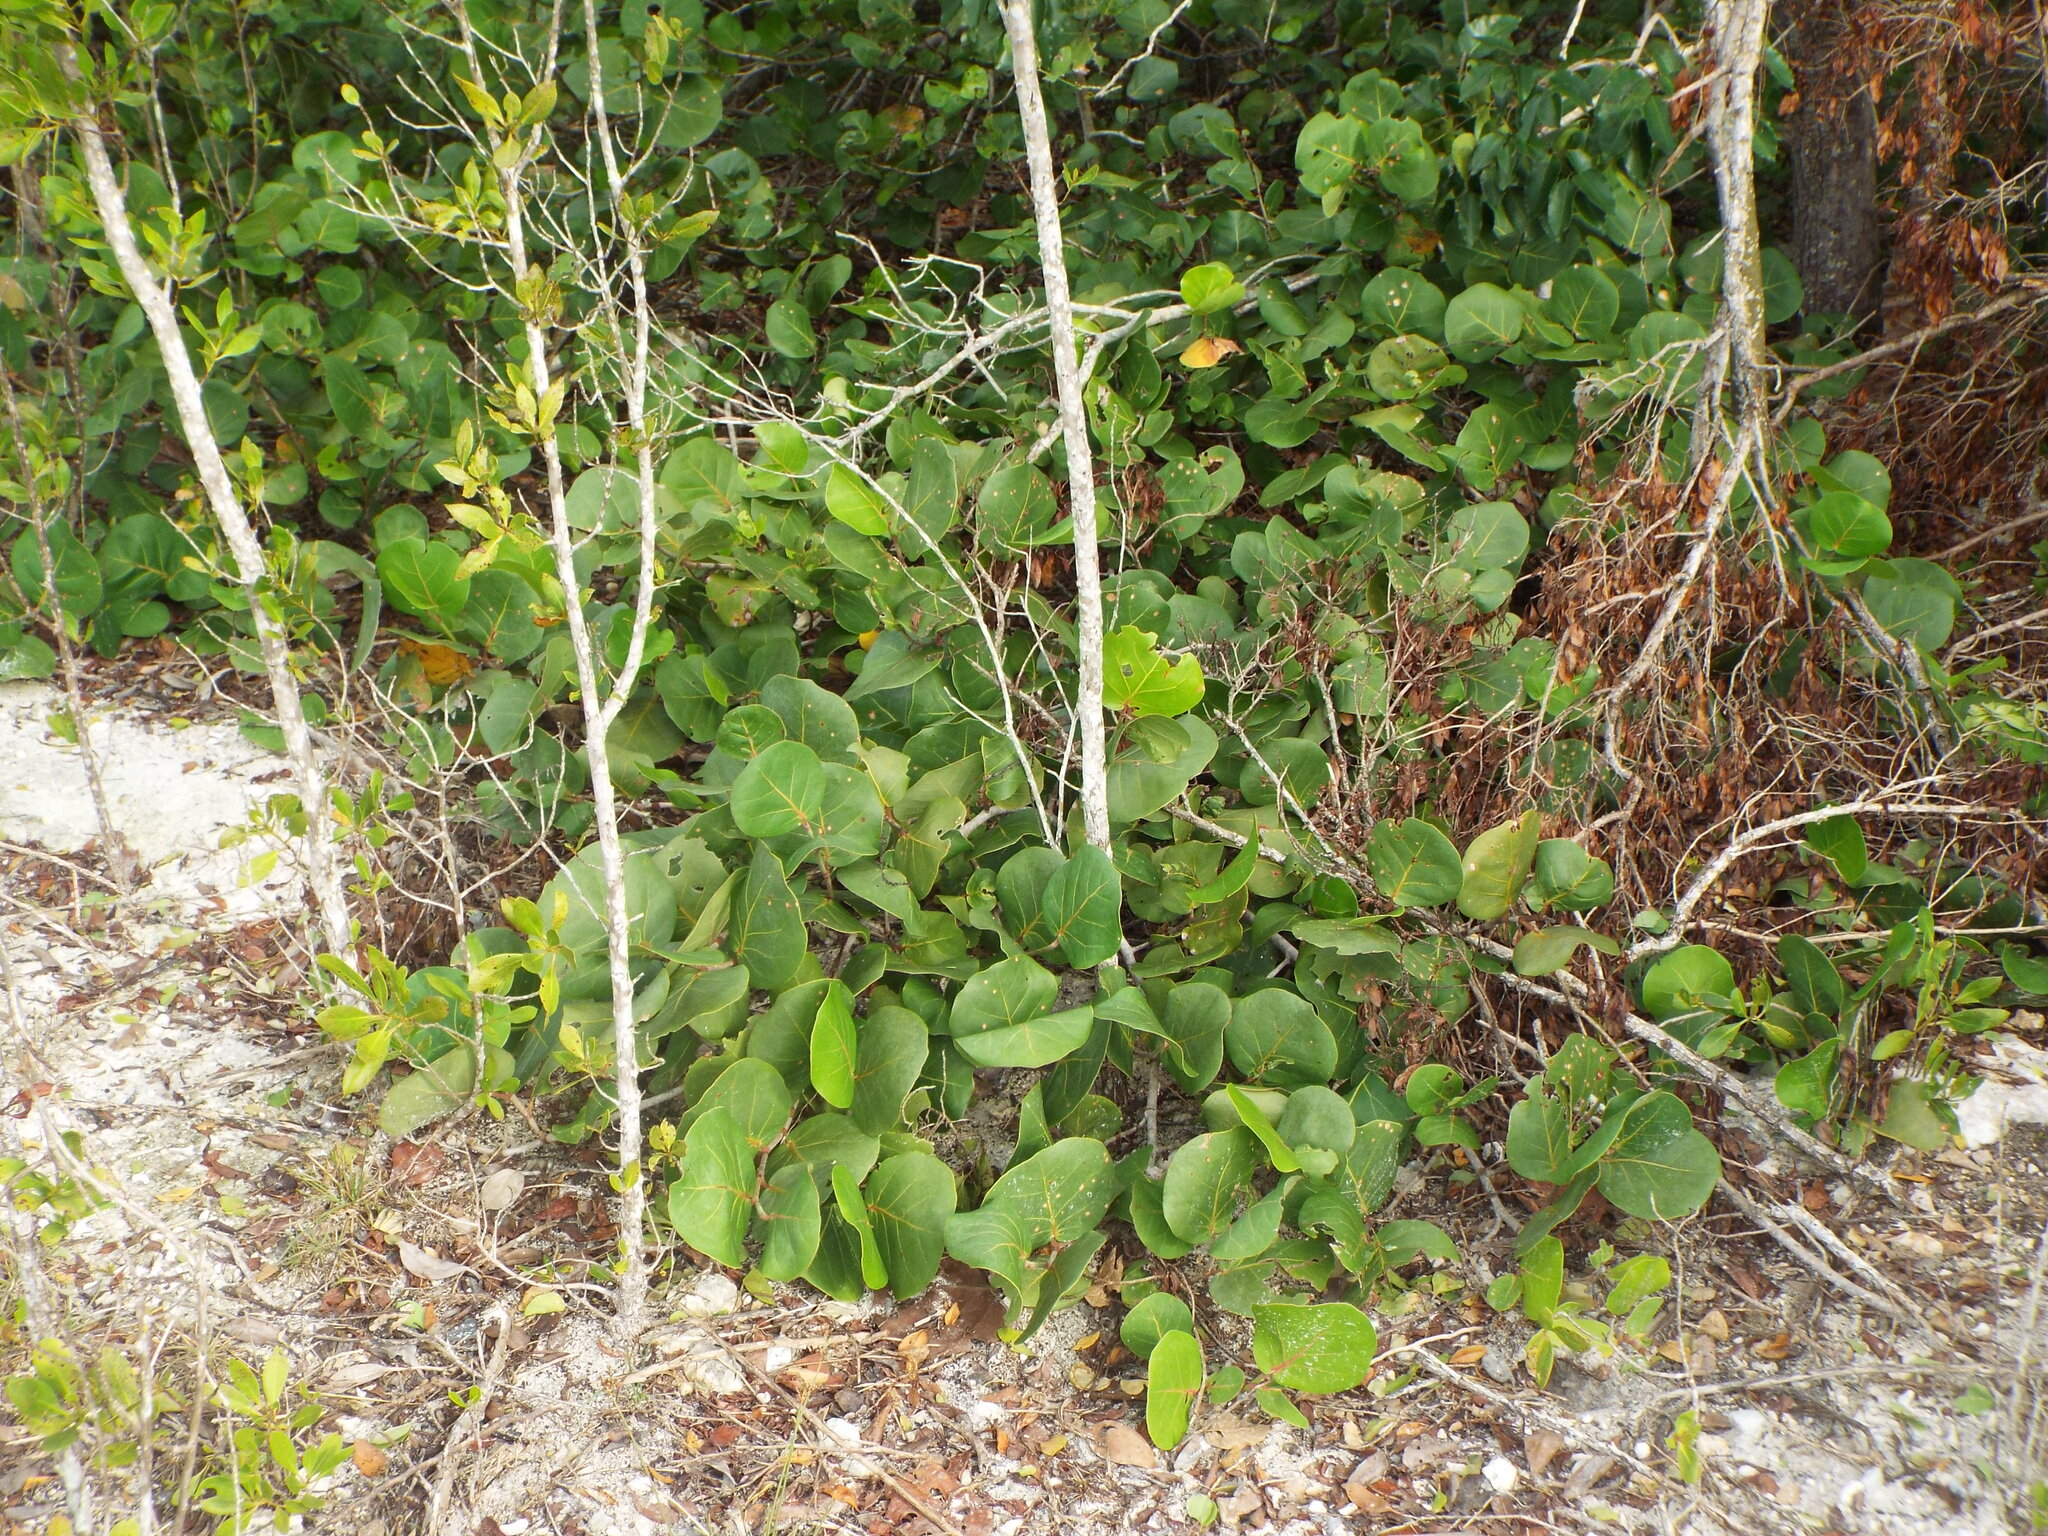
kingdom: Plantae
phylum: Tracheophyta
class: Magnoliopsida
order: Caryophyllales
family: Polygonaceae
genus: Coccoloba
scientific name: Coccoloba uvifera
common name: Seagrape
